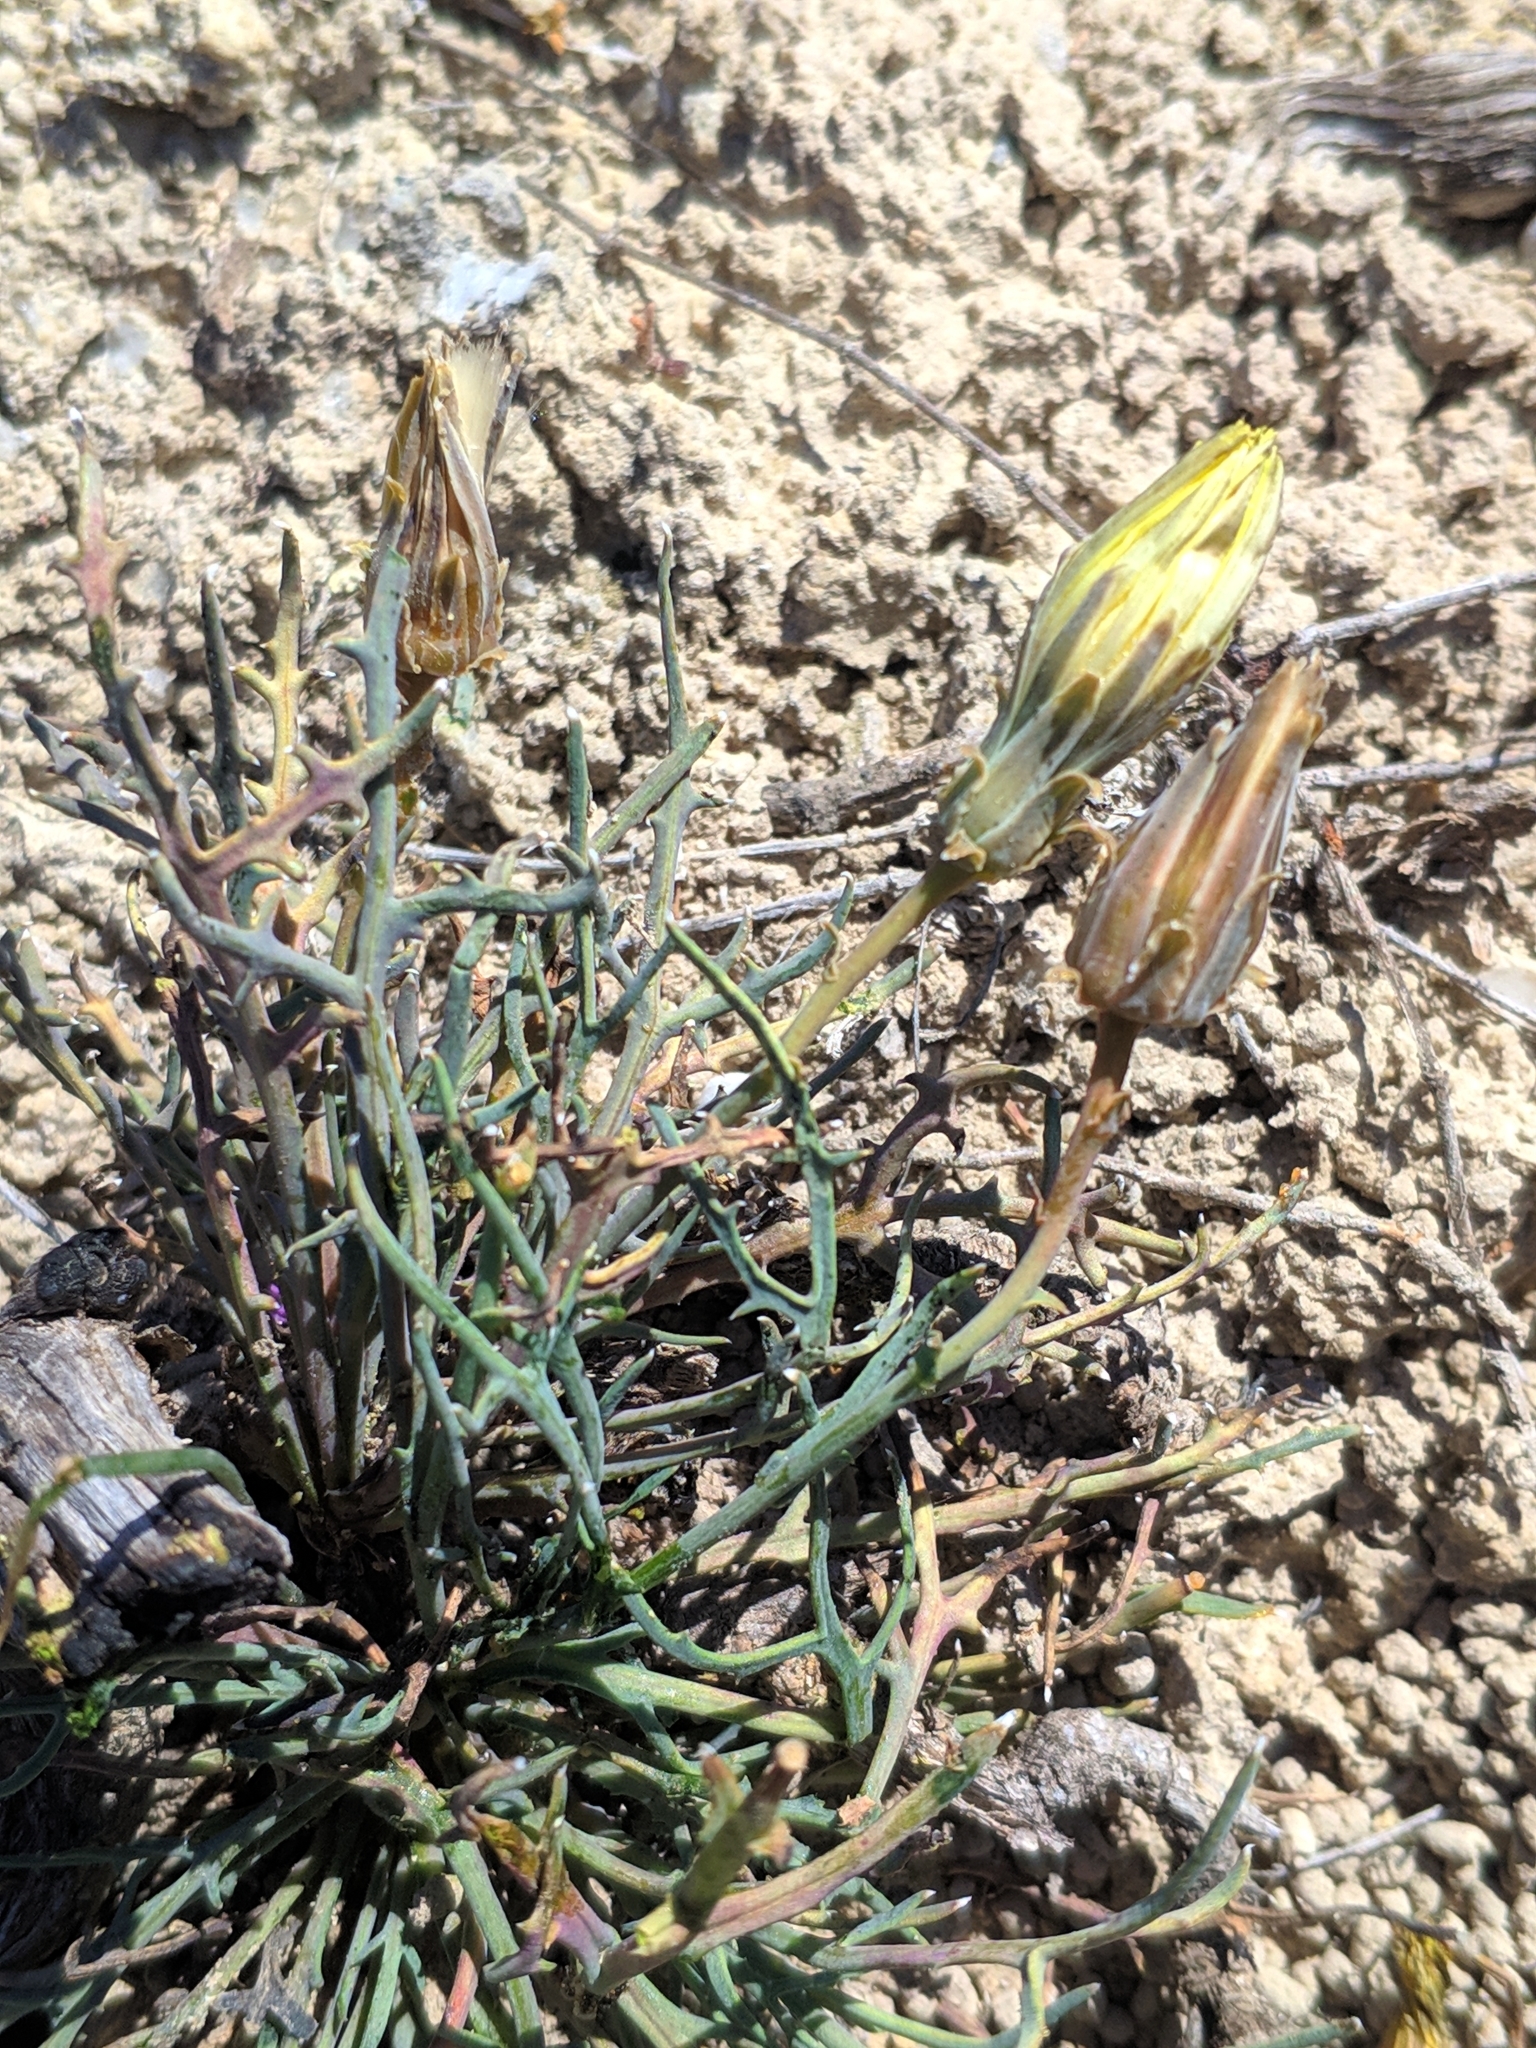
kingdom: Plantae
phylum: Tracheophyta
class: Magnoliopsida
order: Asterales
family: Asteraceae
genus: Launaea
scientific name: Launaea pumila
